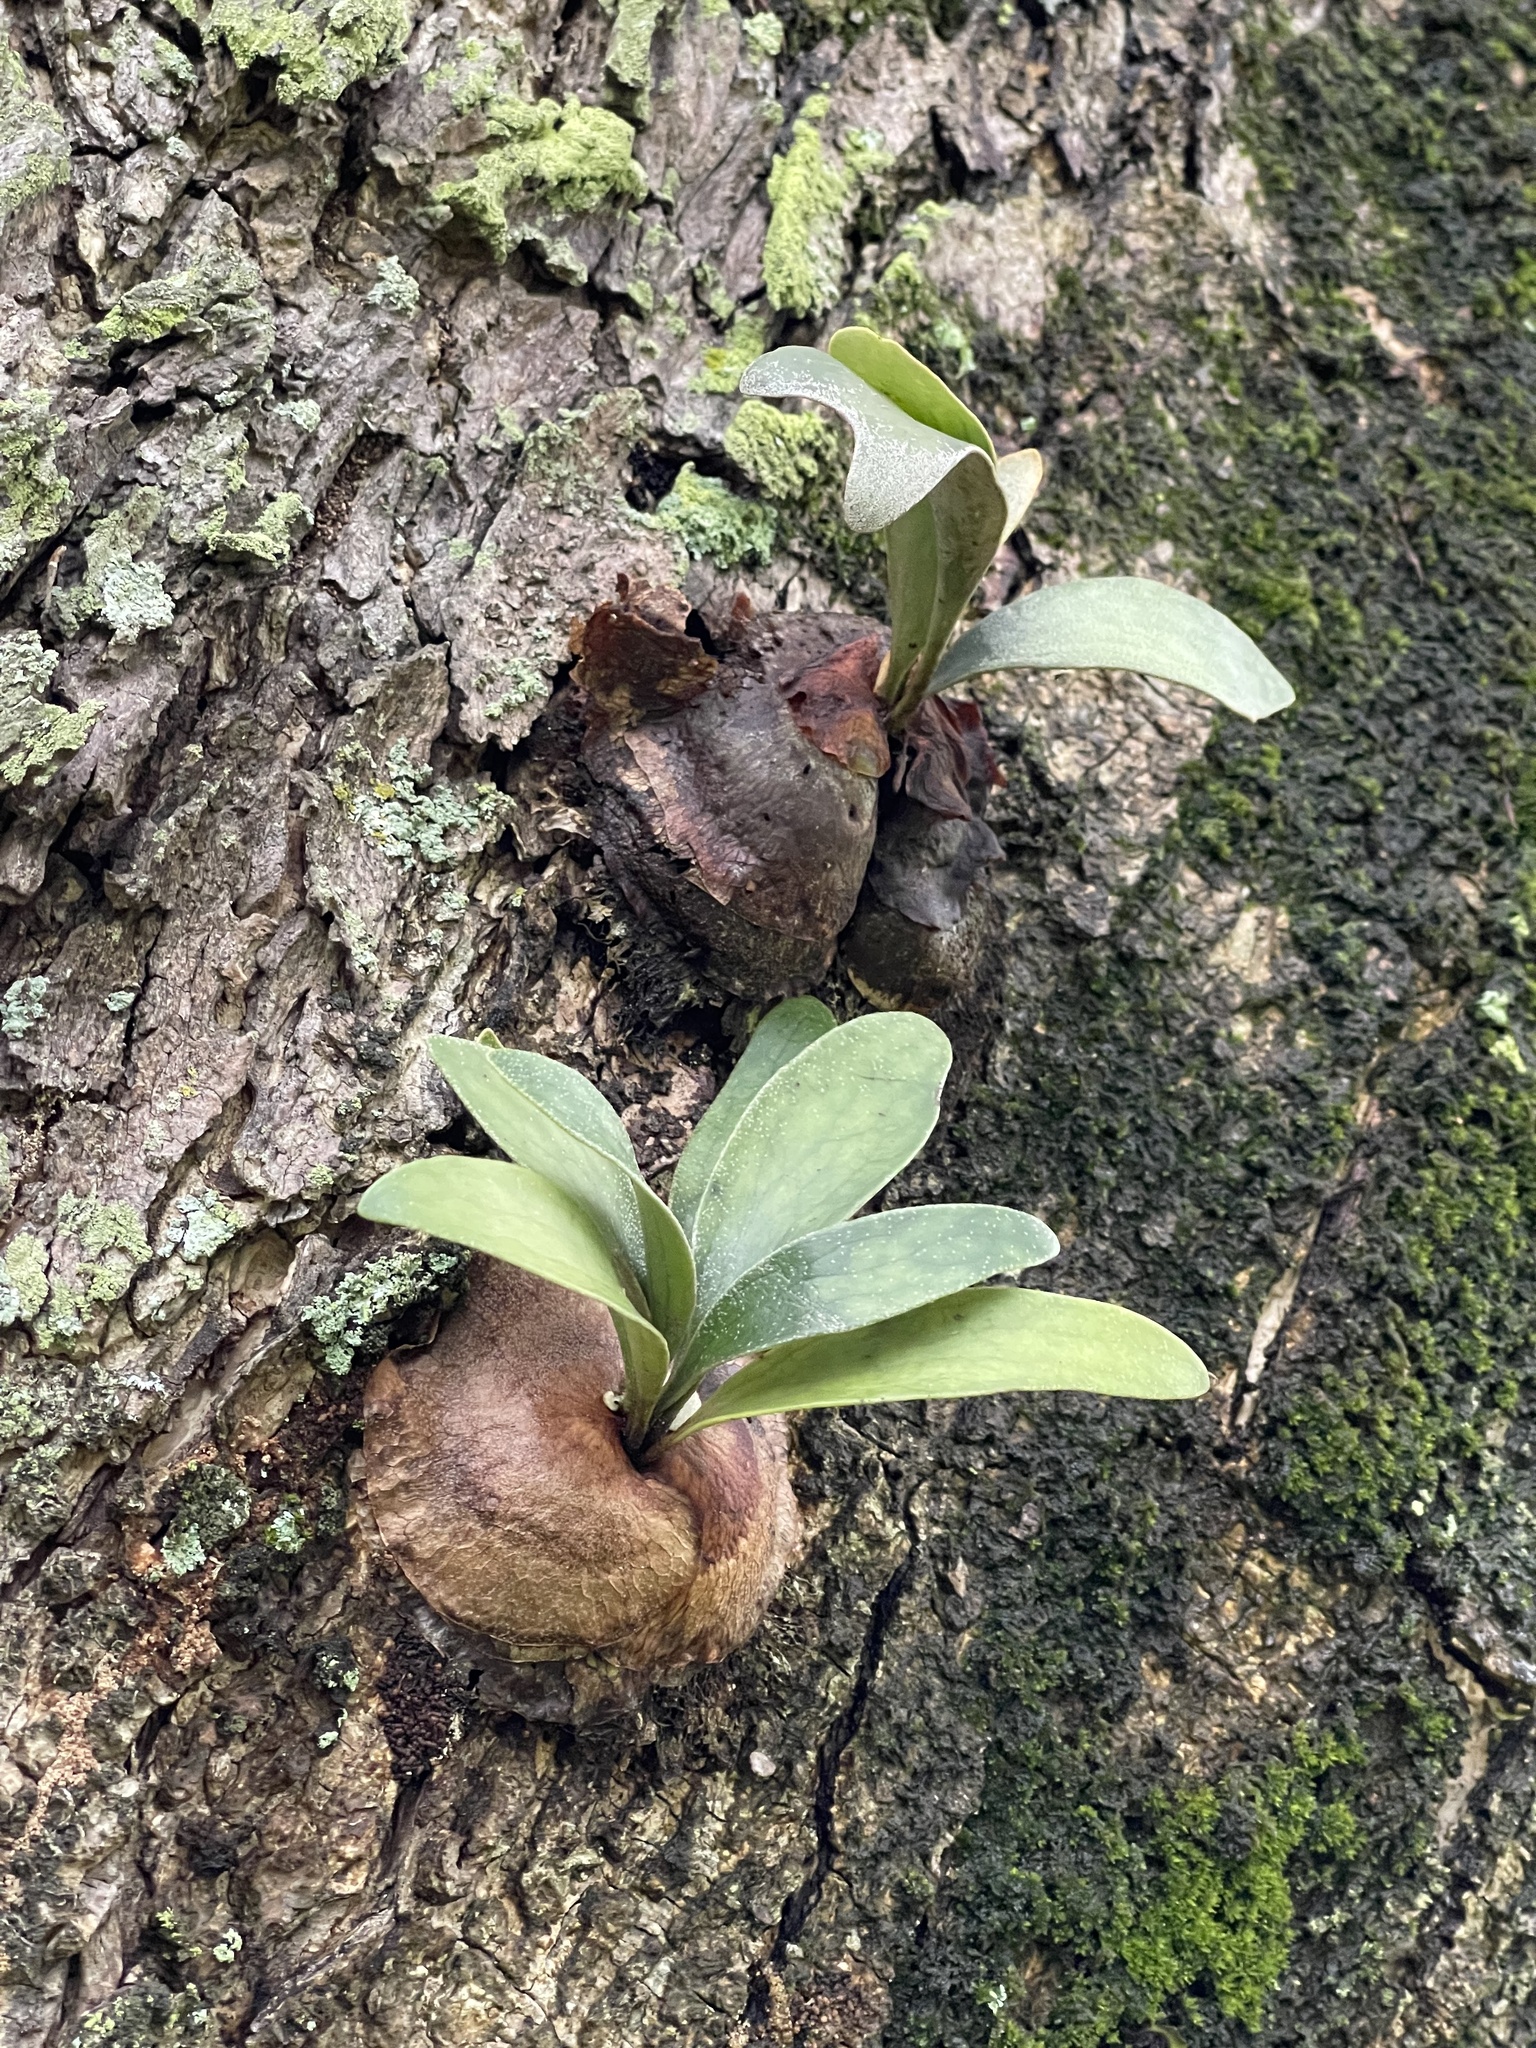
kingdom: Plantae
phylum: Tracheophyta
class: Polypodiopsida
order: Polypodiales
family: Polypodiaceae
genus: Platycerium
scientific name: Platycerium bifurcatum
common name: Elkhorn fern
